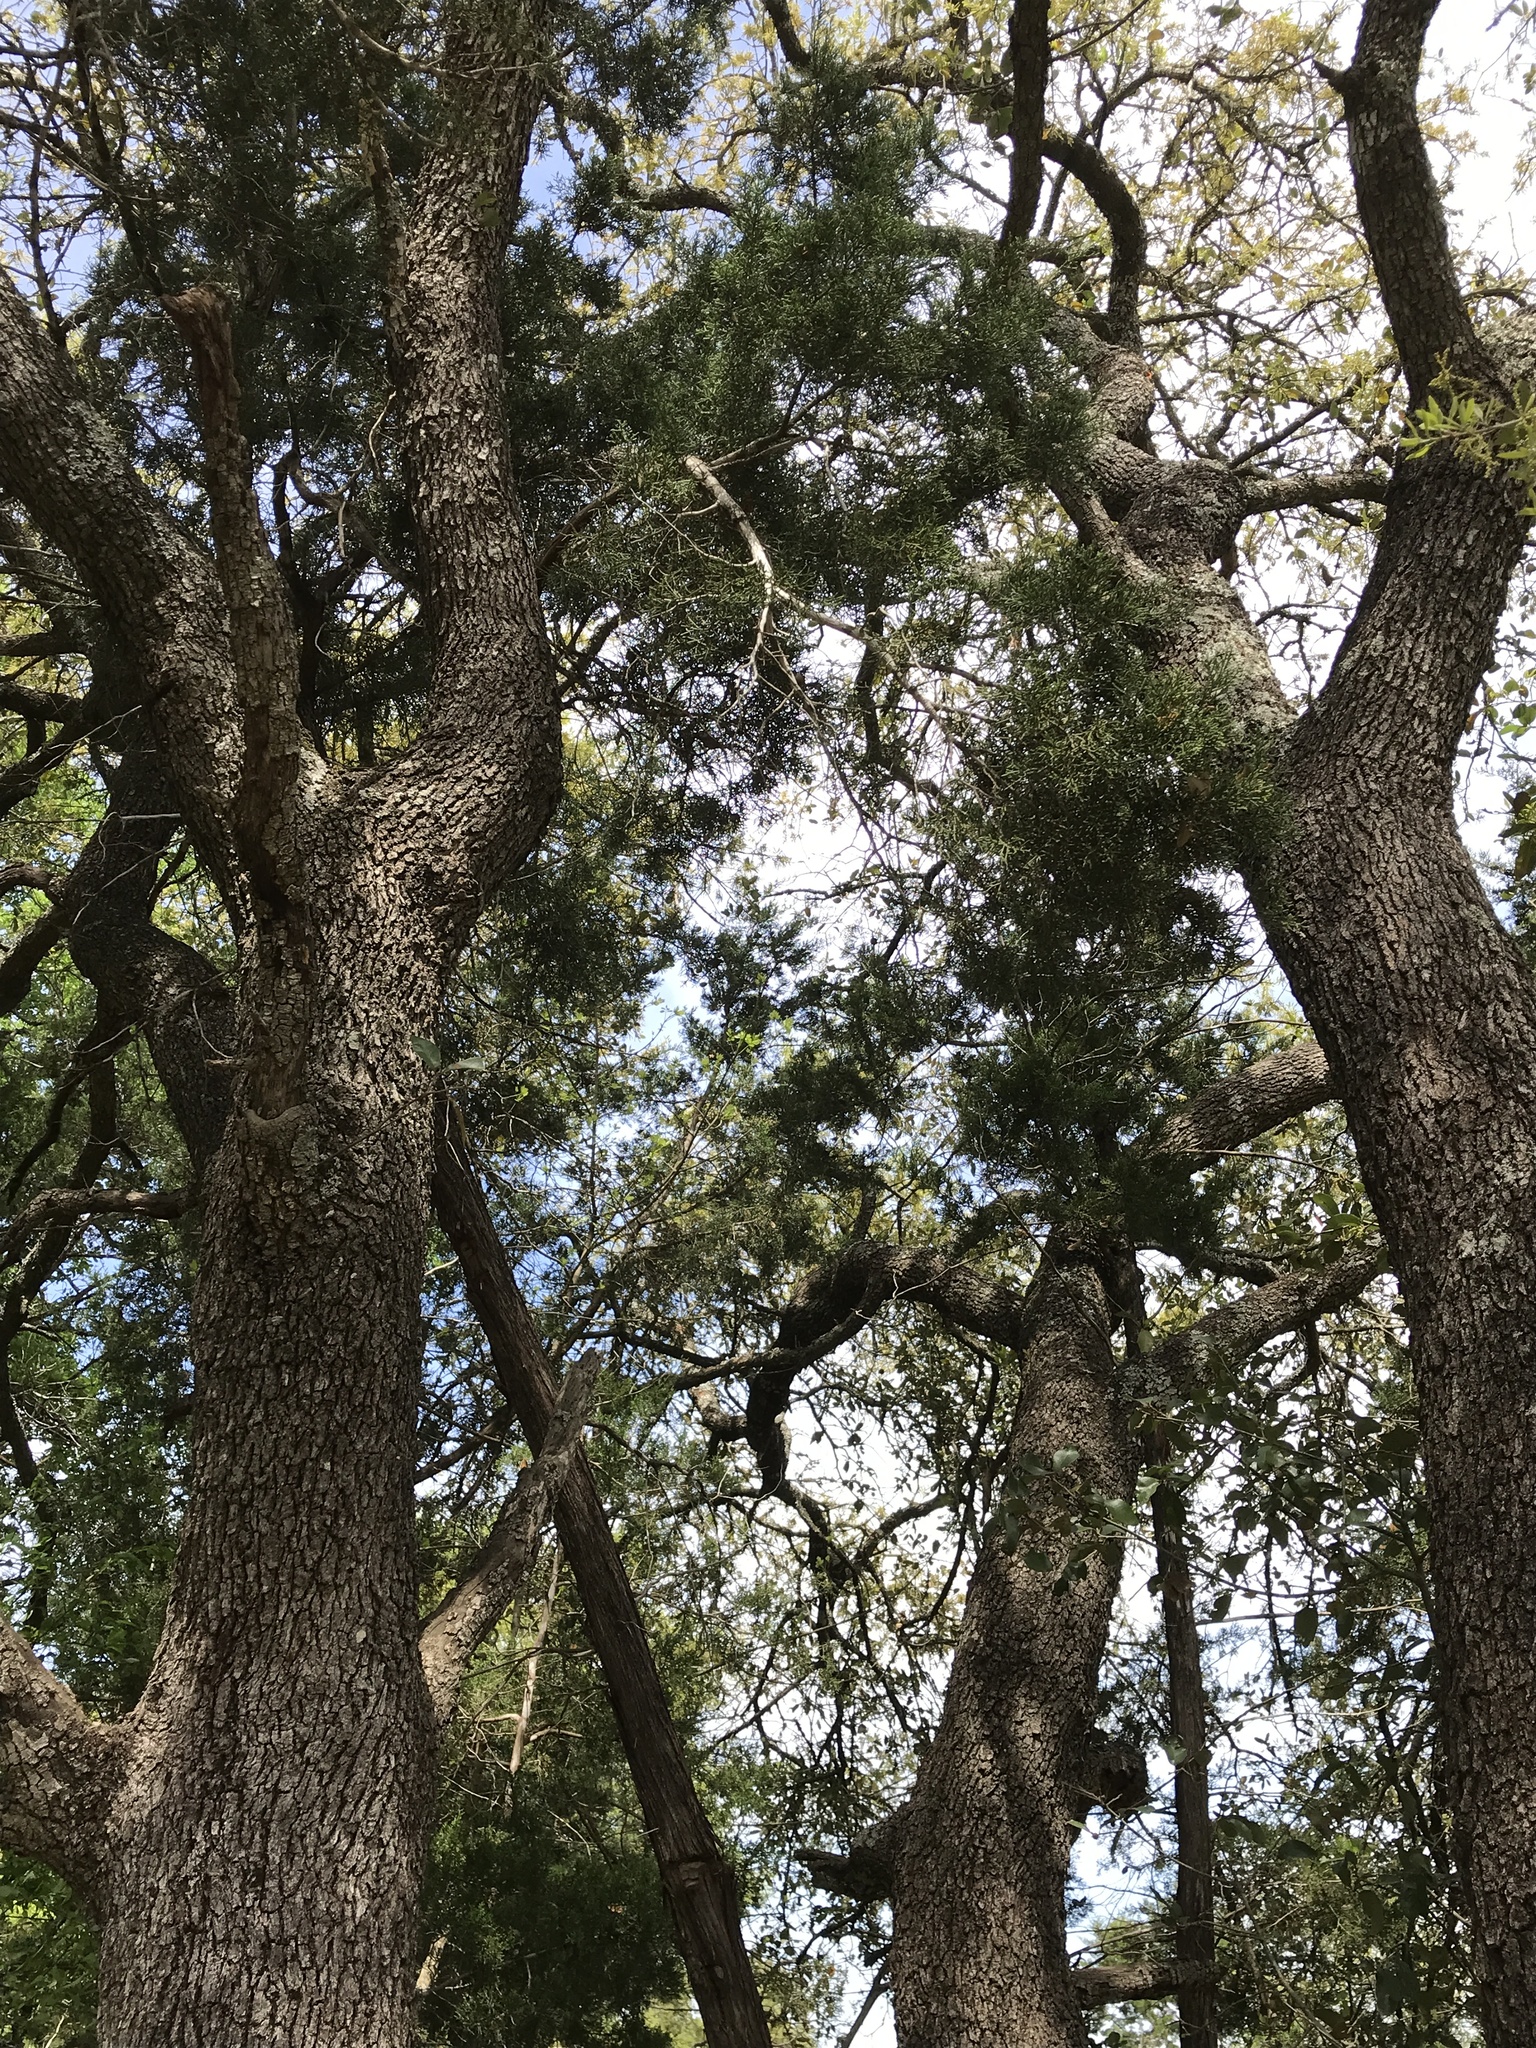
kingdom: Plantae
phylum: Tracheophyta
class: Magnoliopsida
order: Fagales
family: Fagaceae
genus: Quercus
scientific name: Quercus fusiformis
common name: Texas live oak
